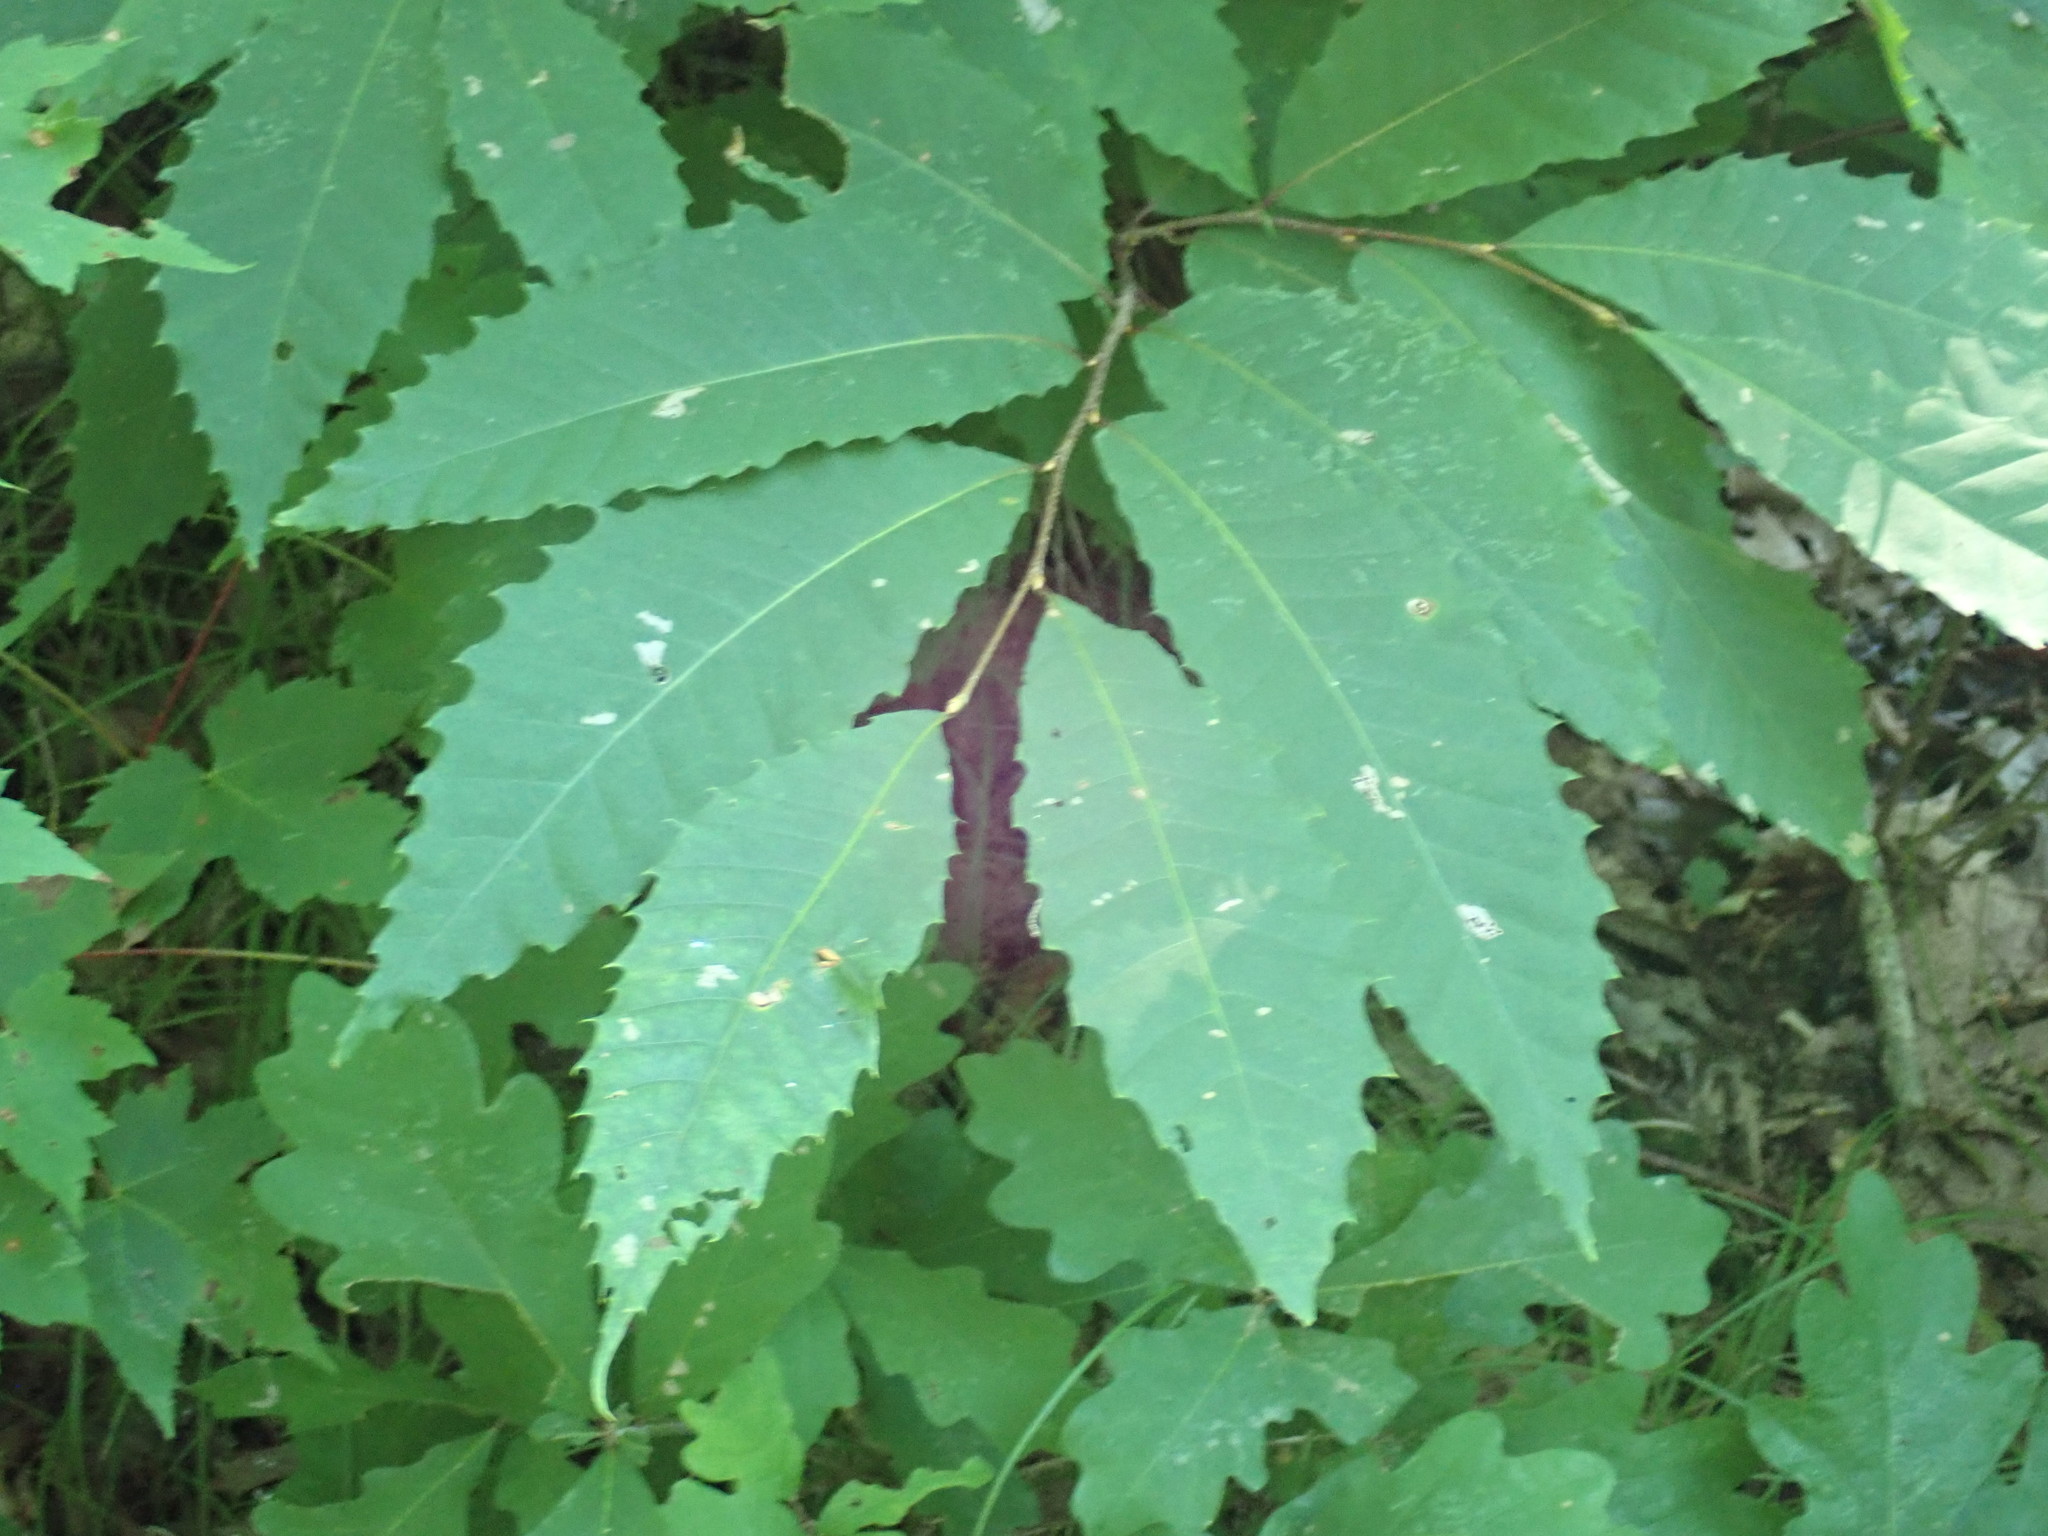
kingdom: Plantae
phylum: Tracheophyta
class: Magnoliopsida
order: Fagales
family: Fagaceae
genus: Castanea
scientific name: Castanea dentata
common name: American chestnut
